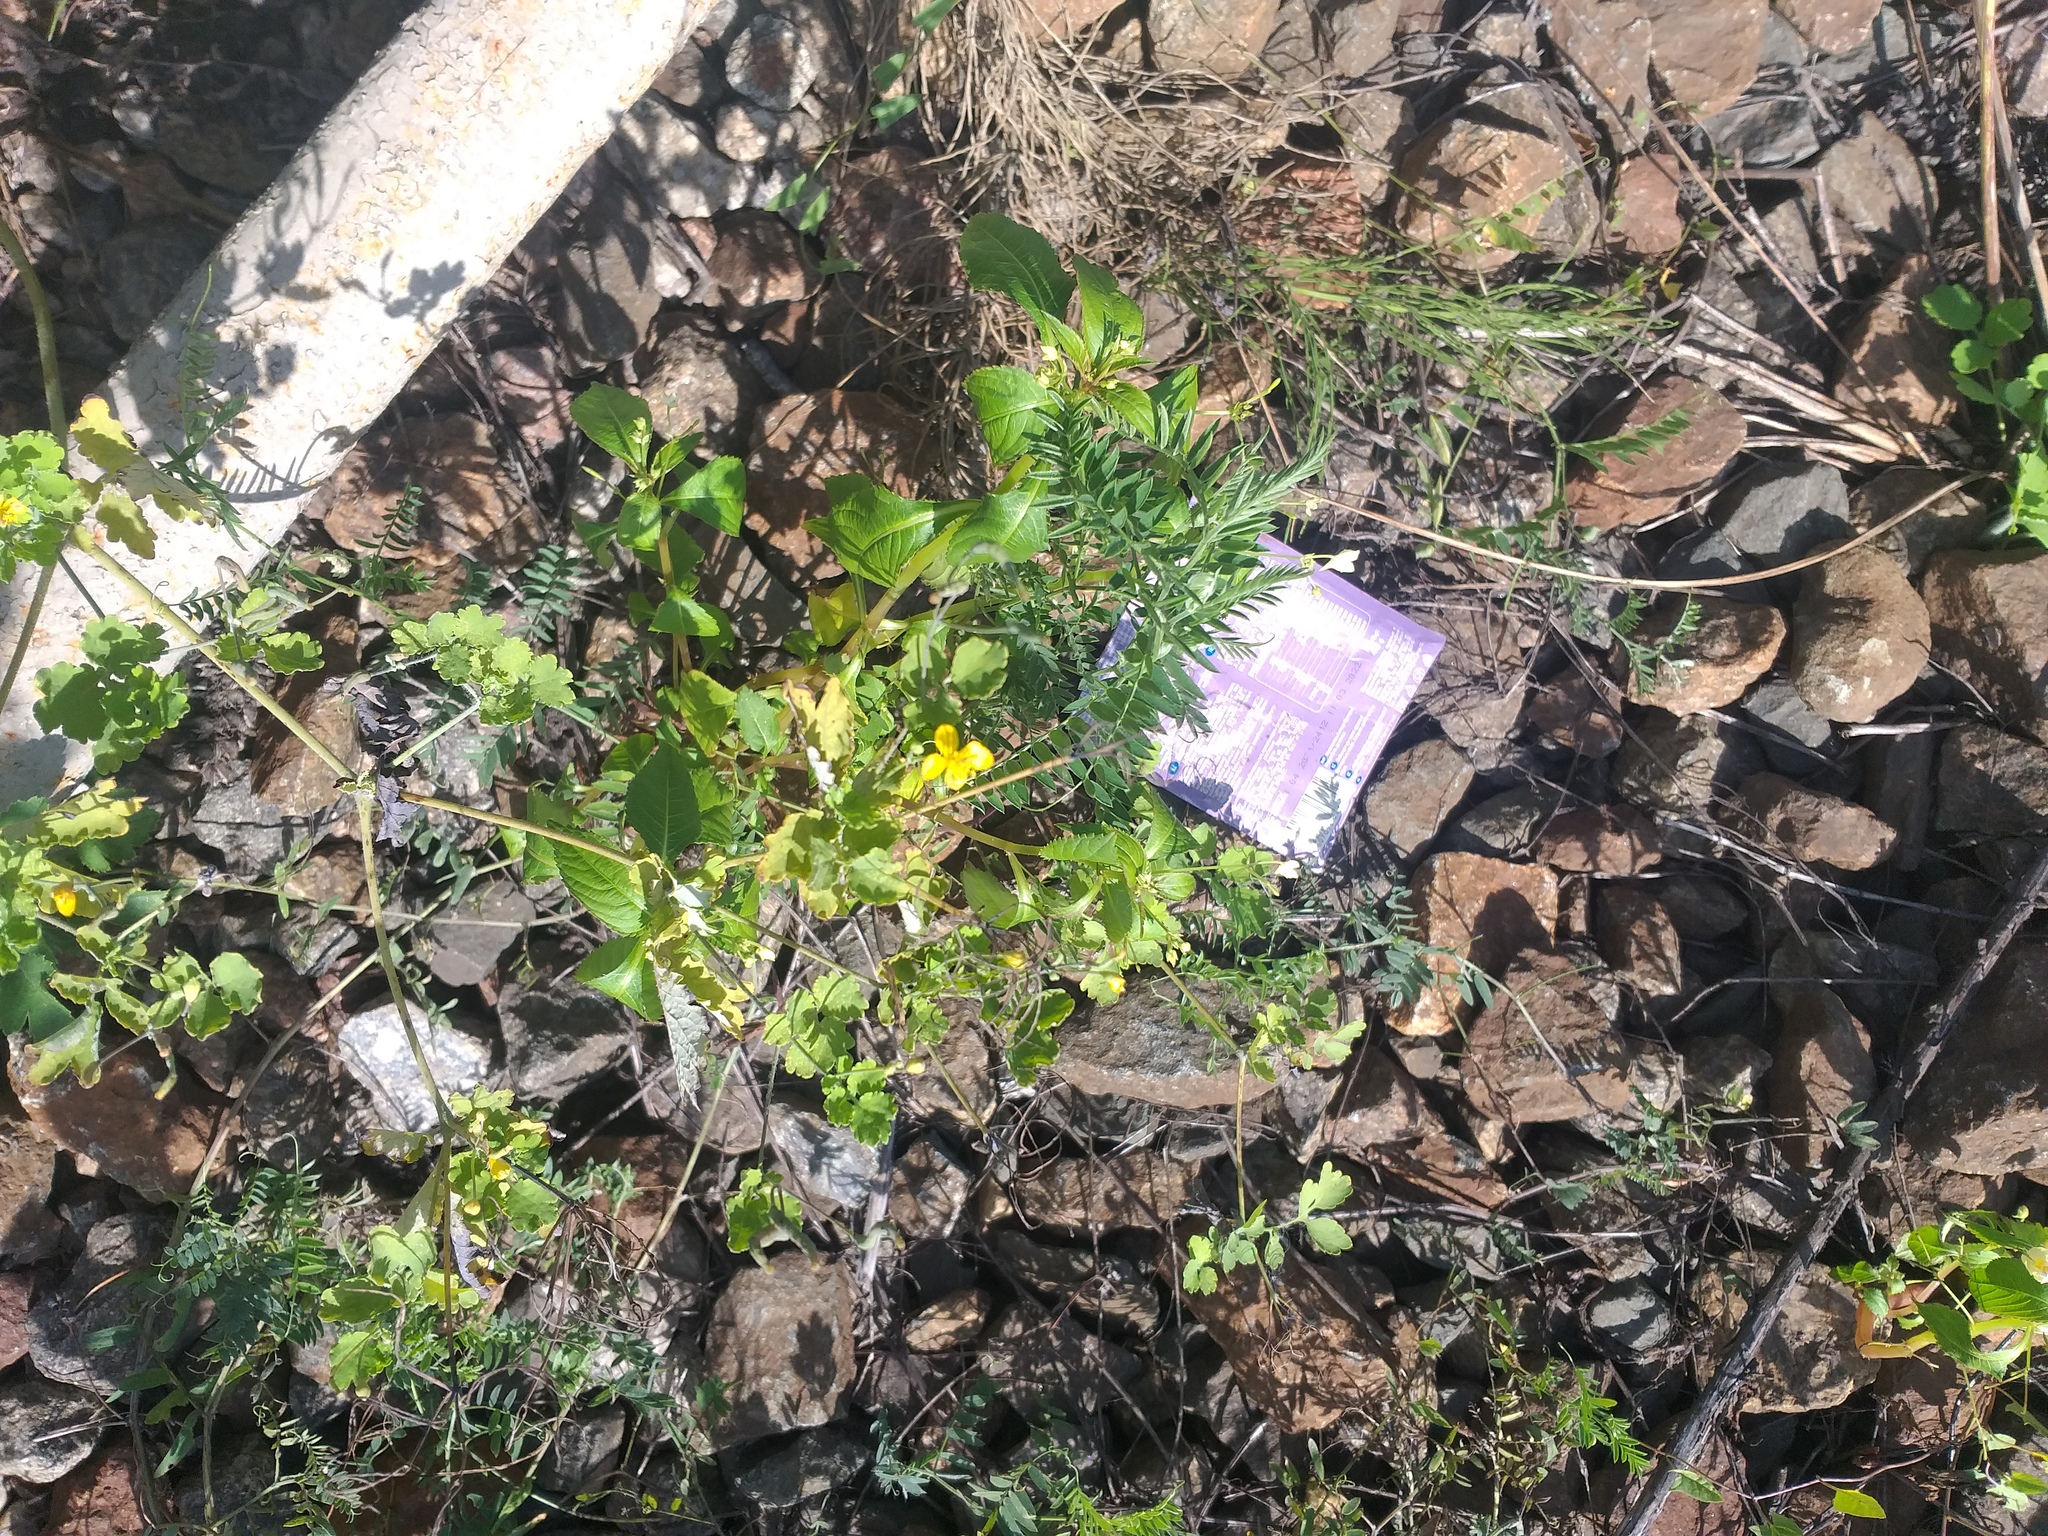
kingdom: Plantae
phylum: Tracheophyta
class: Magnoliopsida
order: Ranunculales
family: Papaveraceae
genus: Chelidonium
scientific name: Chelidonium majus
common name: Greater celandine
